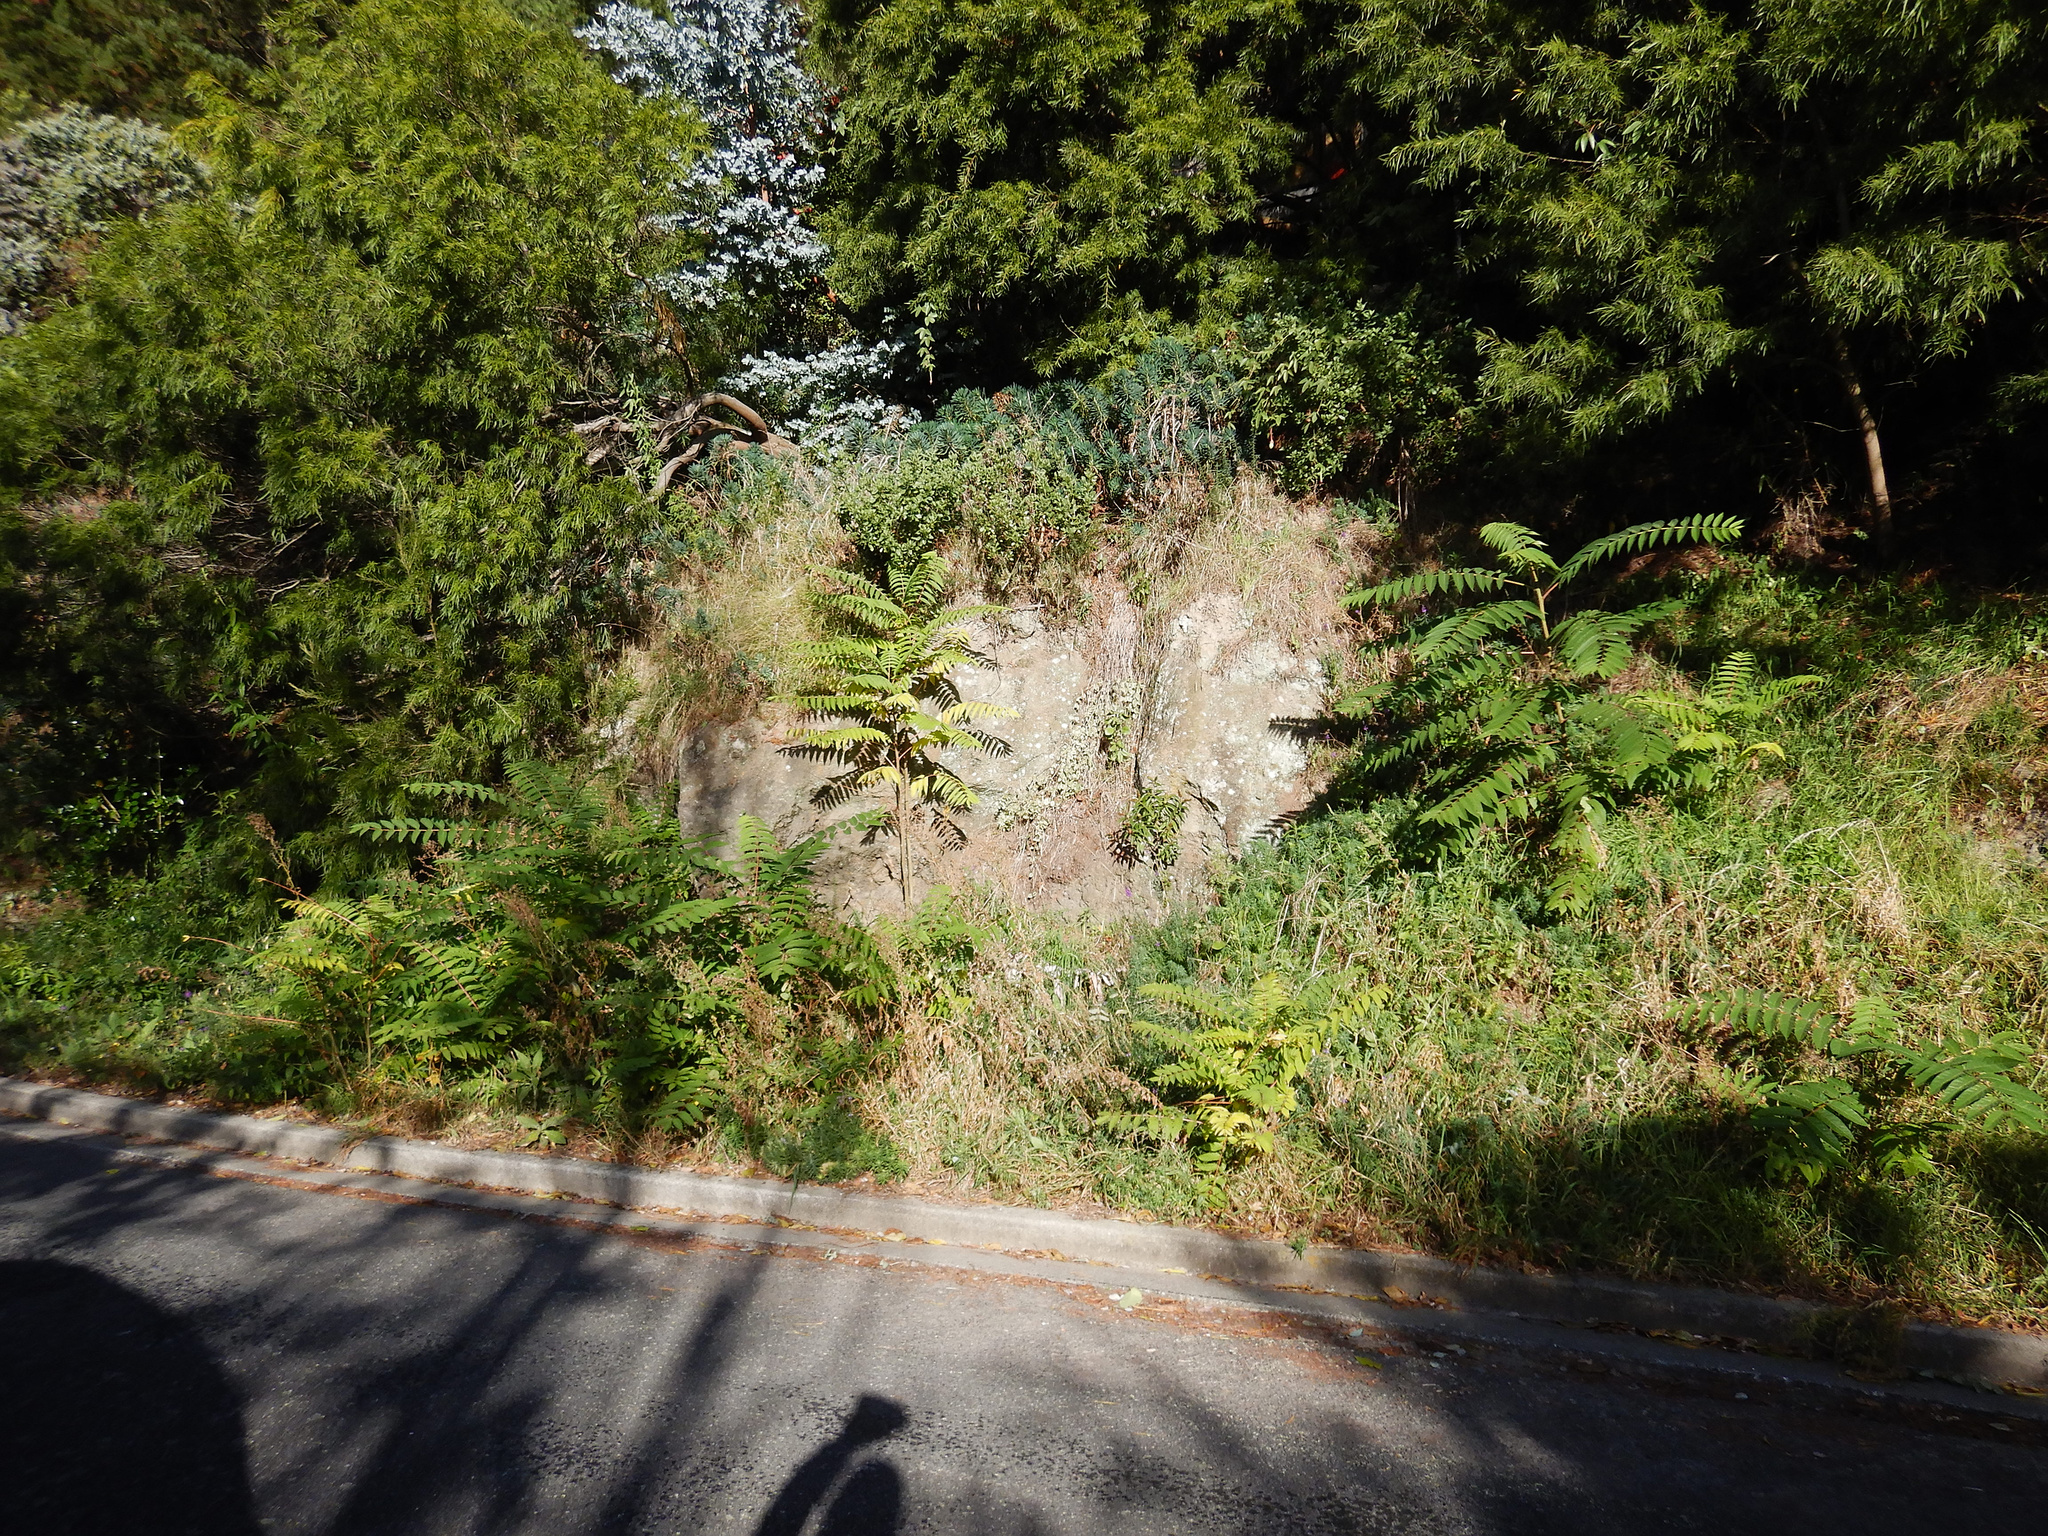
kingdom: Plantae
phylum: Tracheophyta
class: Magnoliopsida
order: Sapindales
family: Simaroubaceae
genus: Ailanthus
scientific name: Ailanthus altissima
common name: Tree-of-heaven
